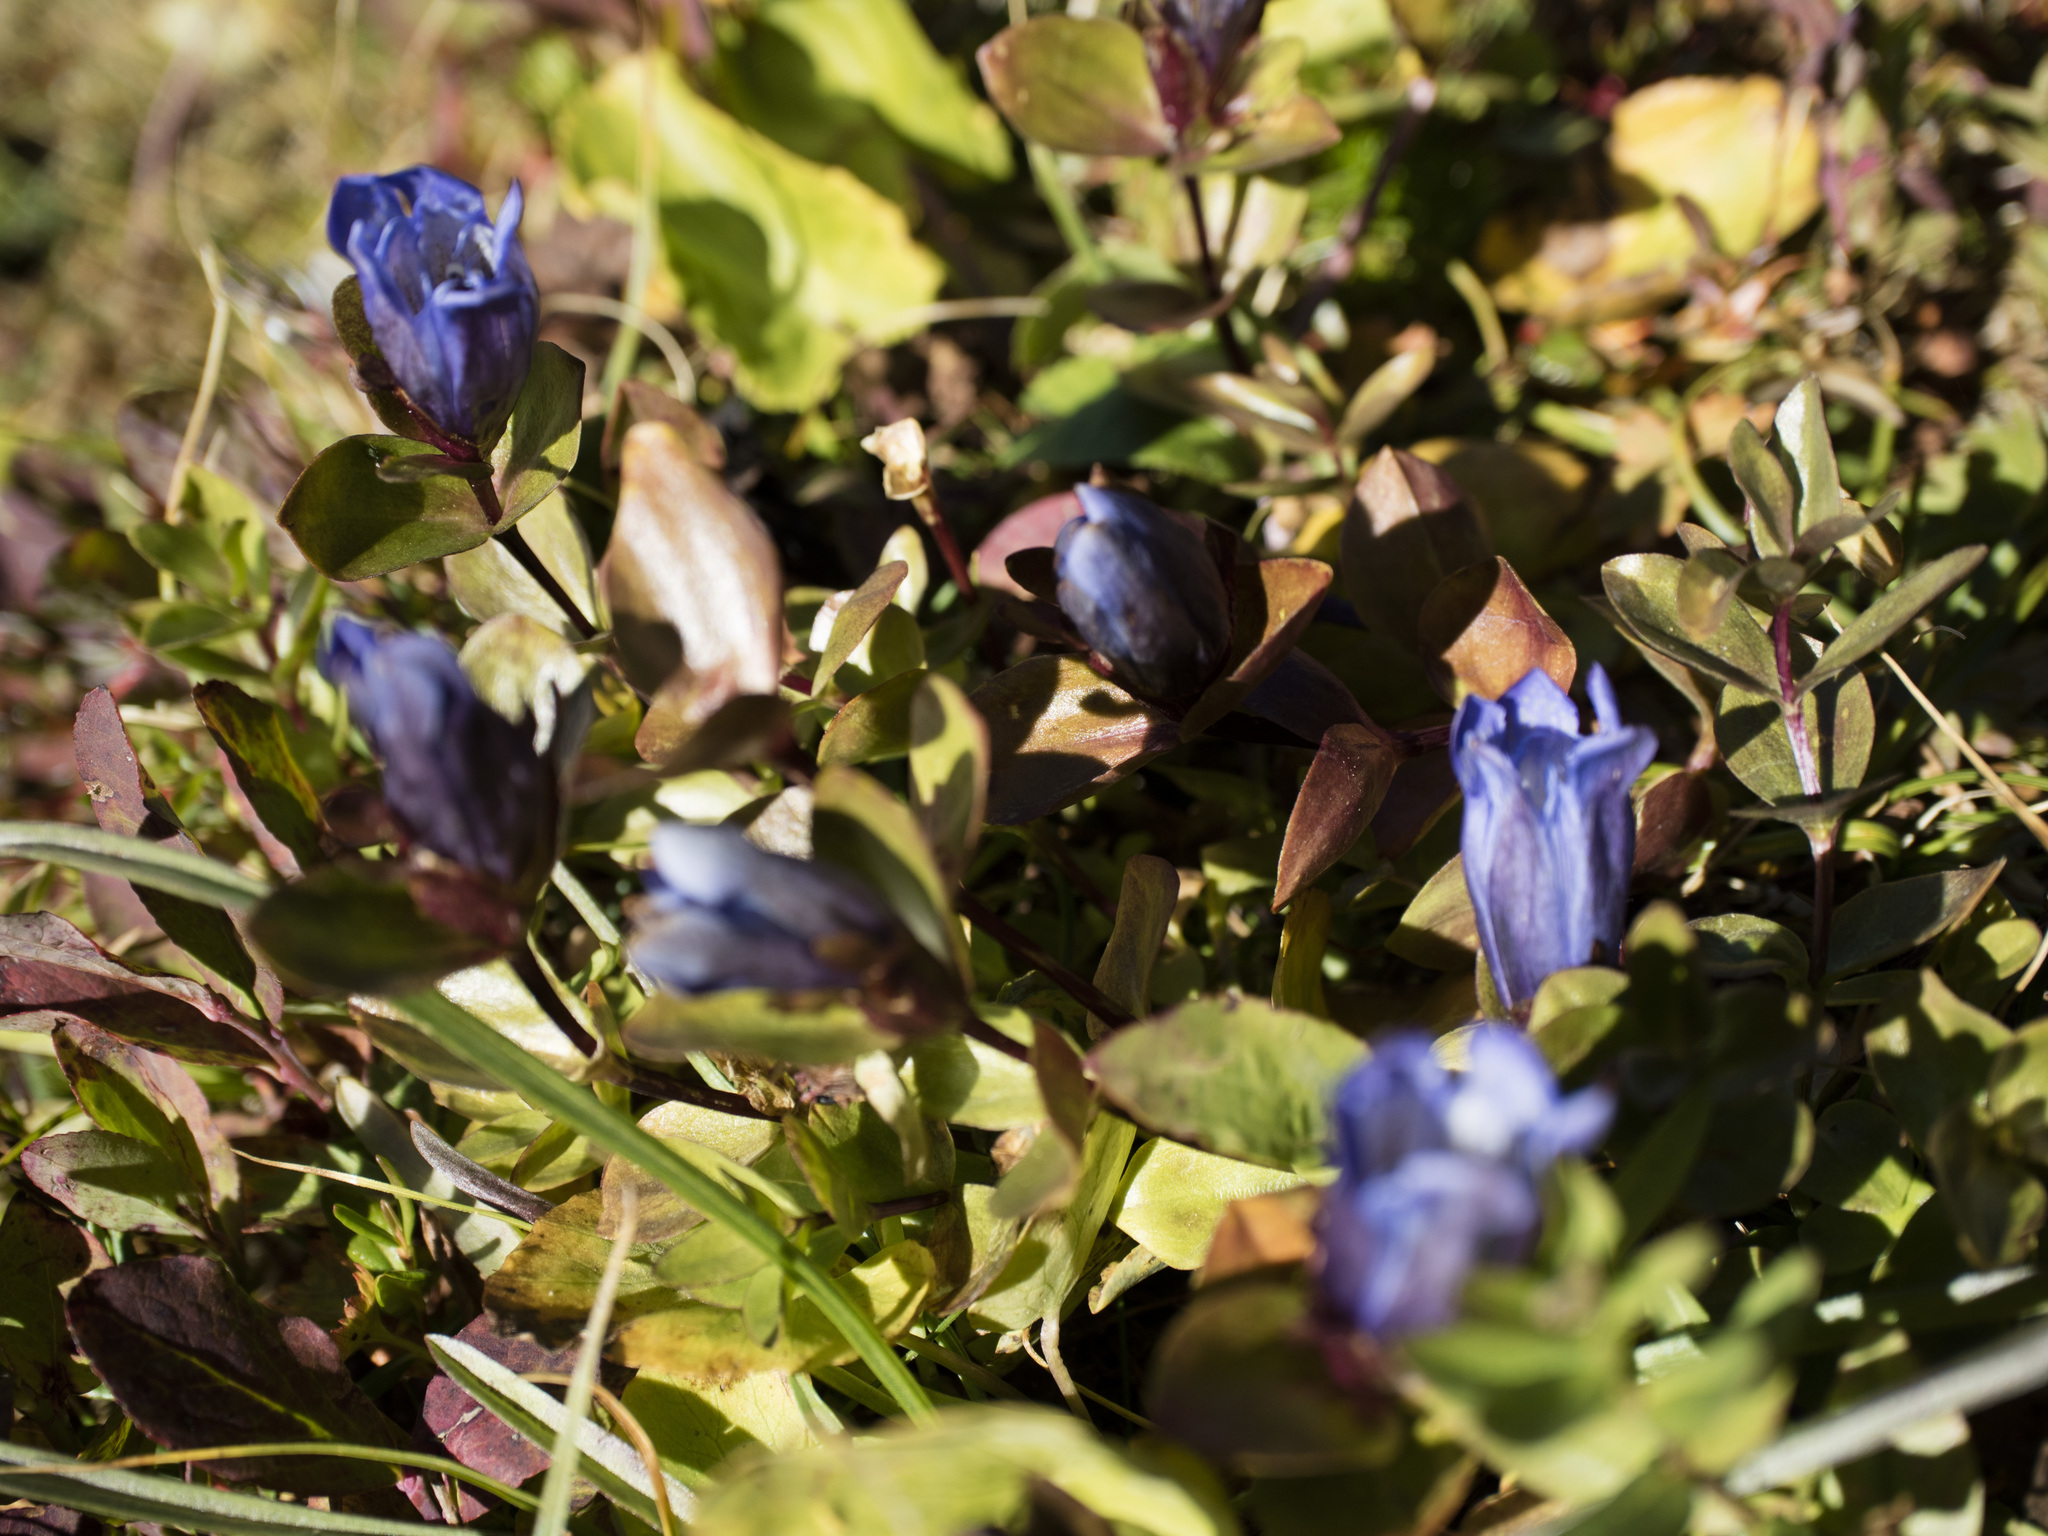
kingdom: Plantae
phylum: Tracheophyta
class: Magnoliopsida
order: Gentianales
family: Gentianaceae
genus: Gentiana
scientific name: Gentiana calycosa
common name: Rainier pleated gentian
